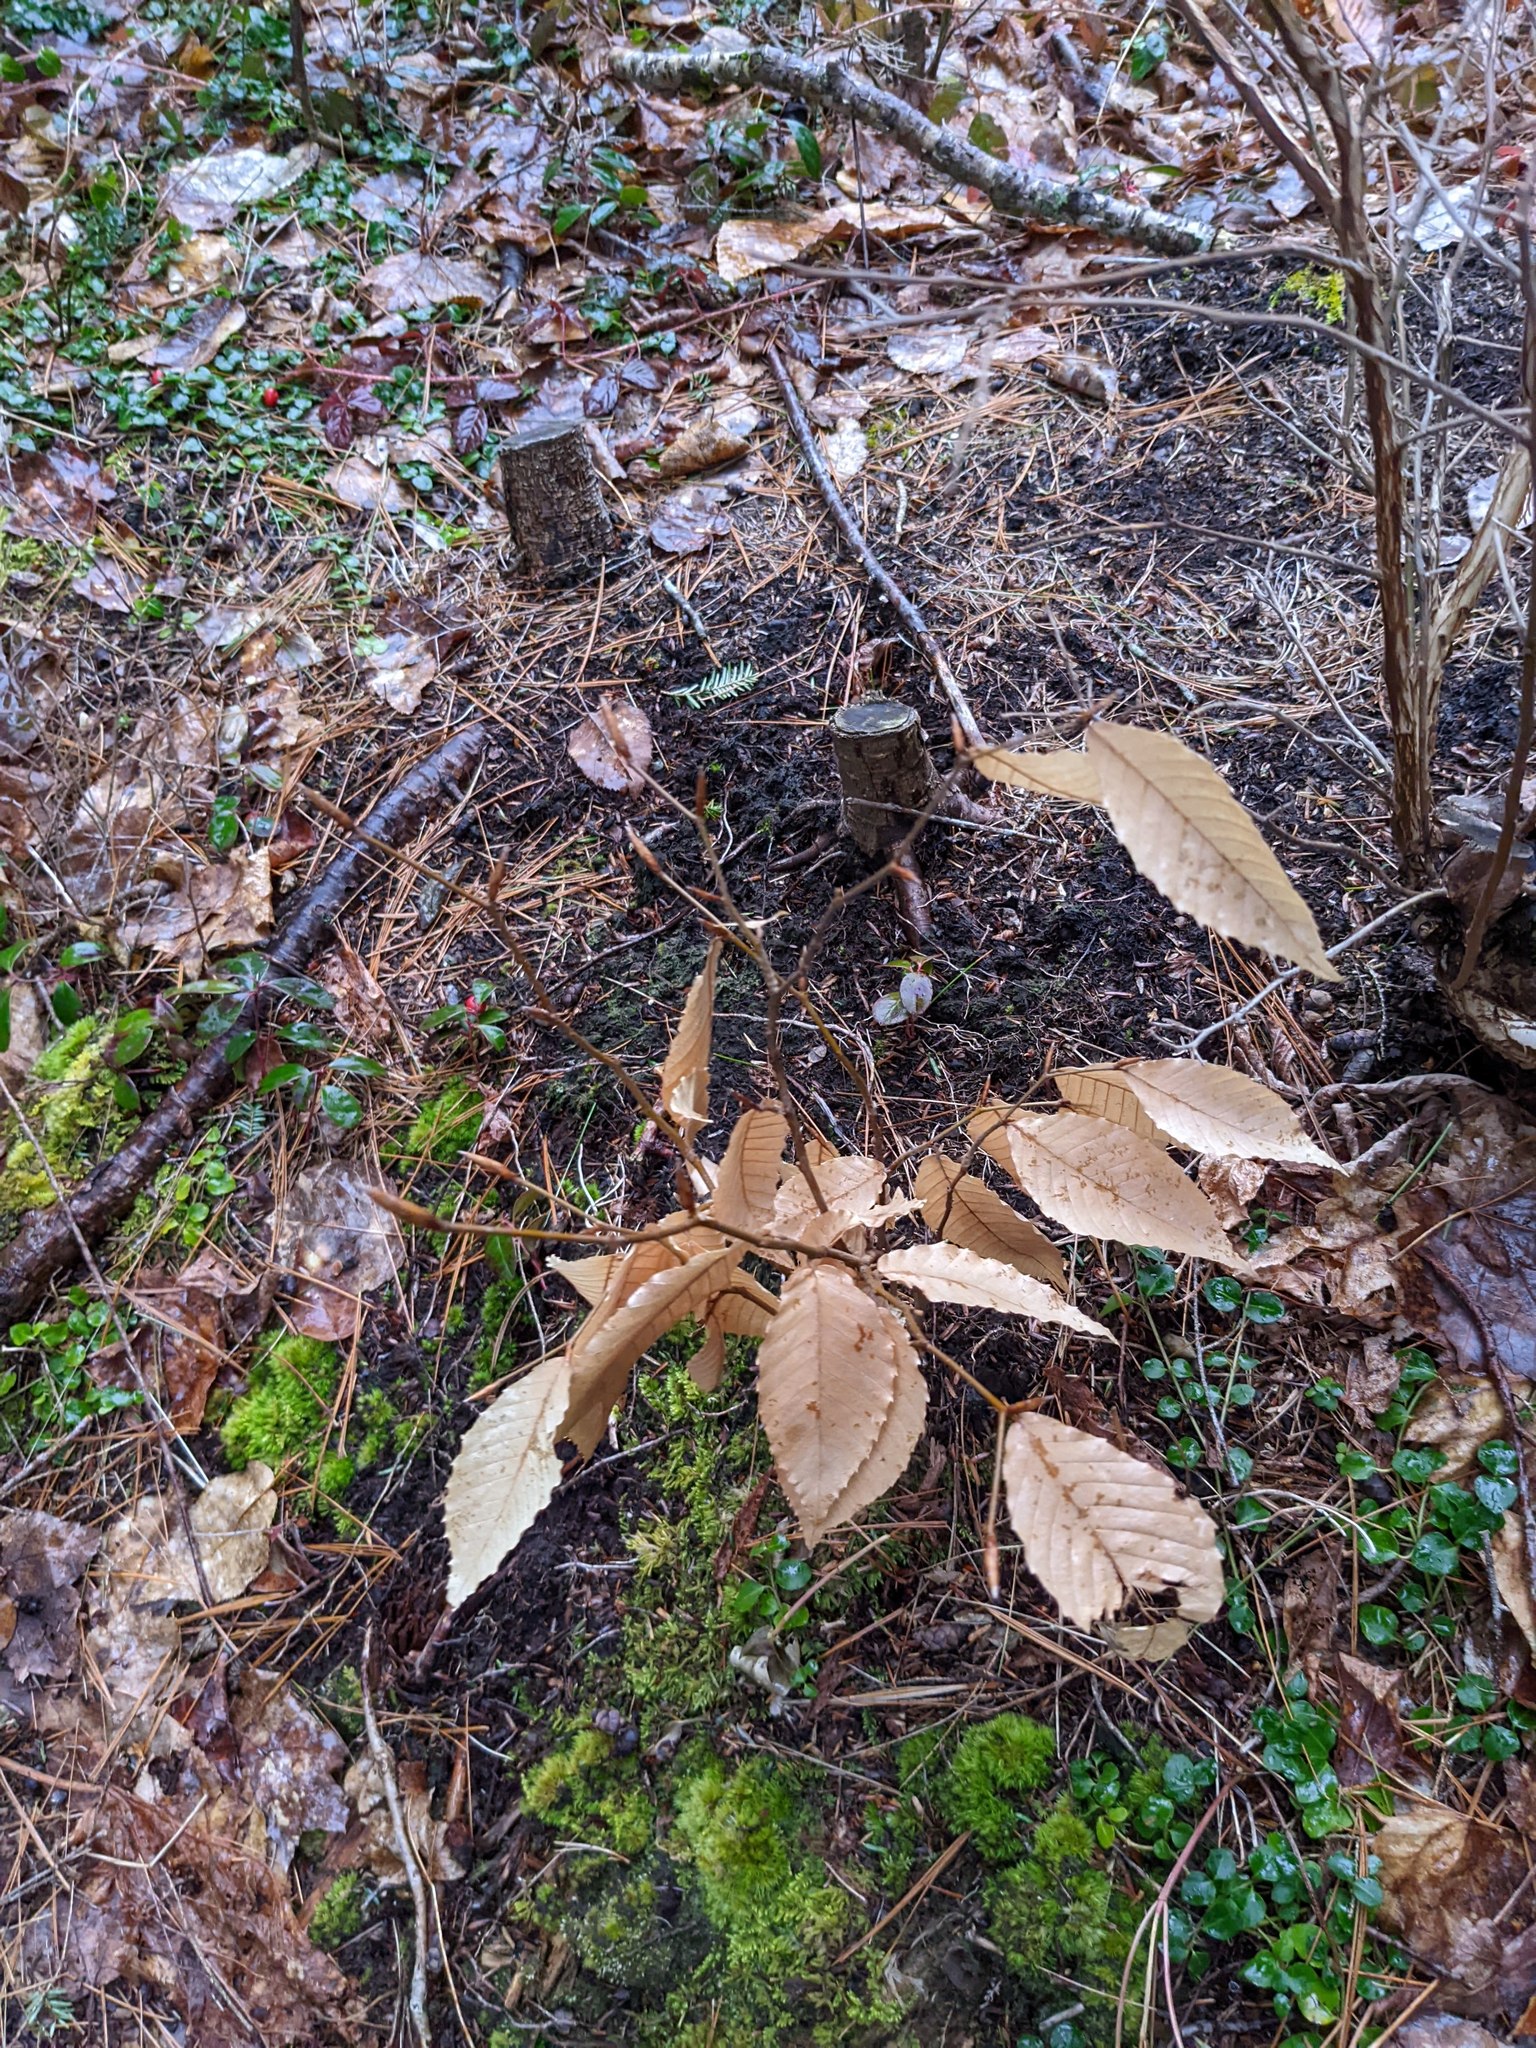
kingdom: Plantae
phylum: Tracheophyta
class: Magnoliopsida
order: Fagales
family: Fagaceae
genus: Fagus
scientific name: Fagus grandifolia
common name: American beech
